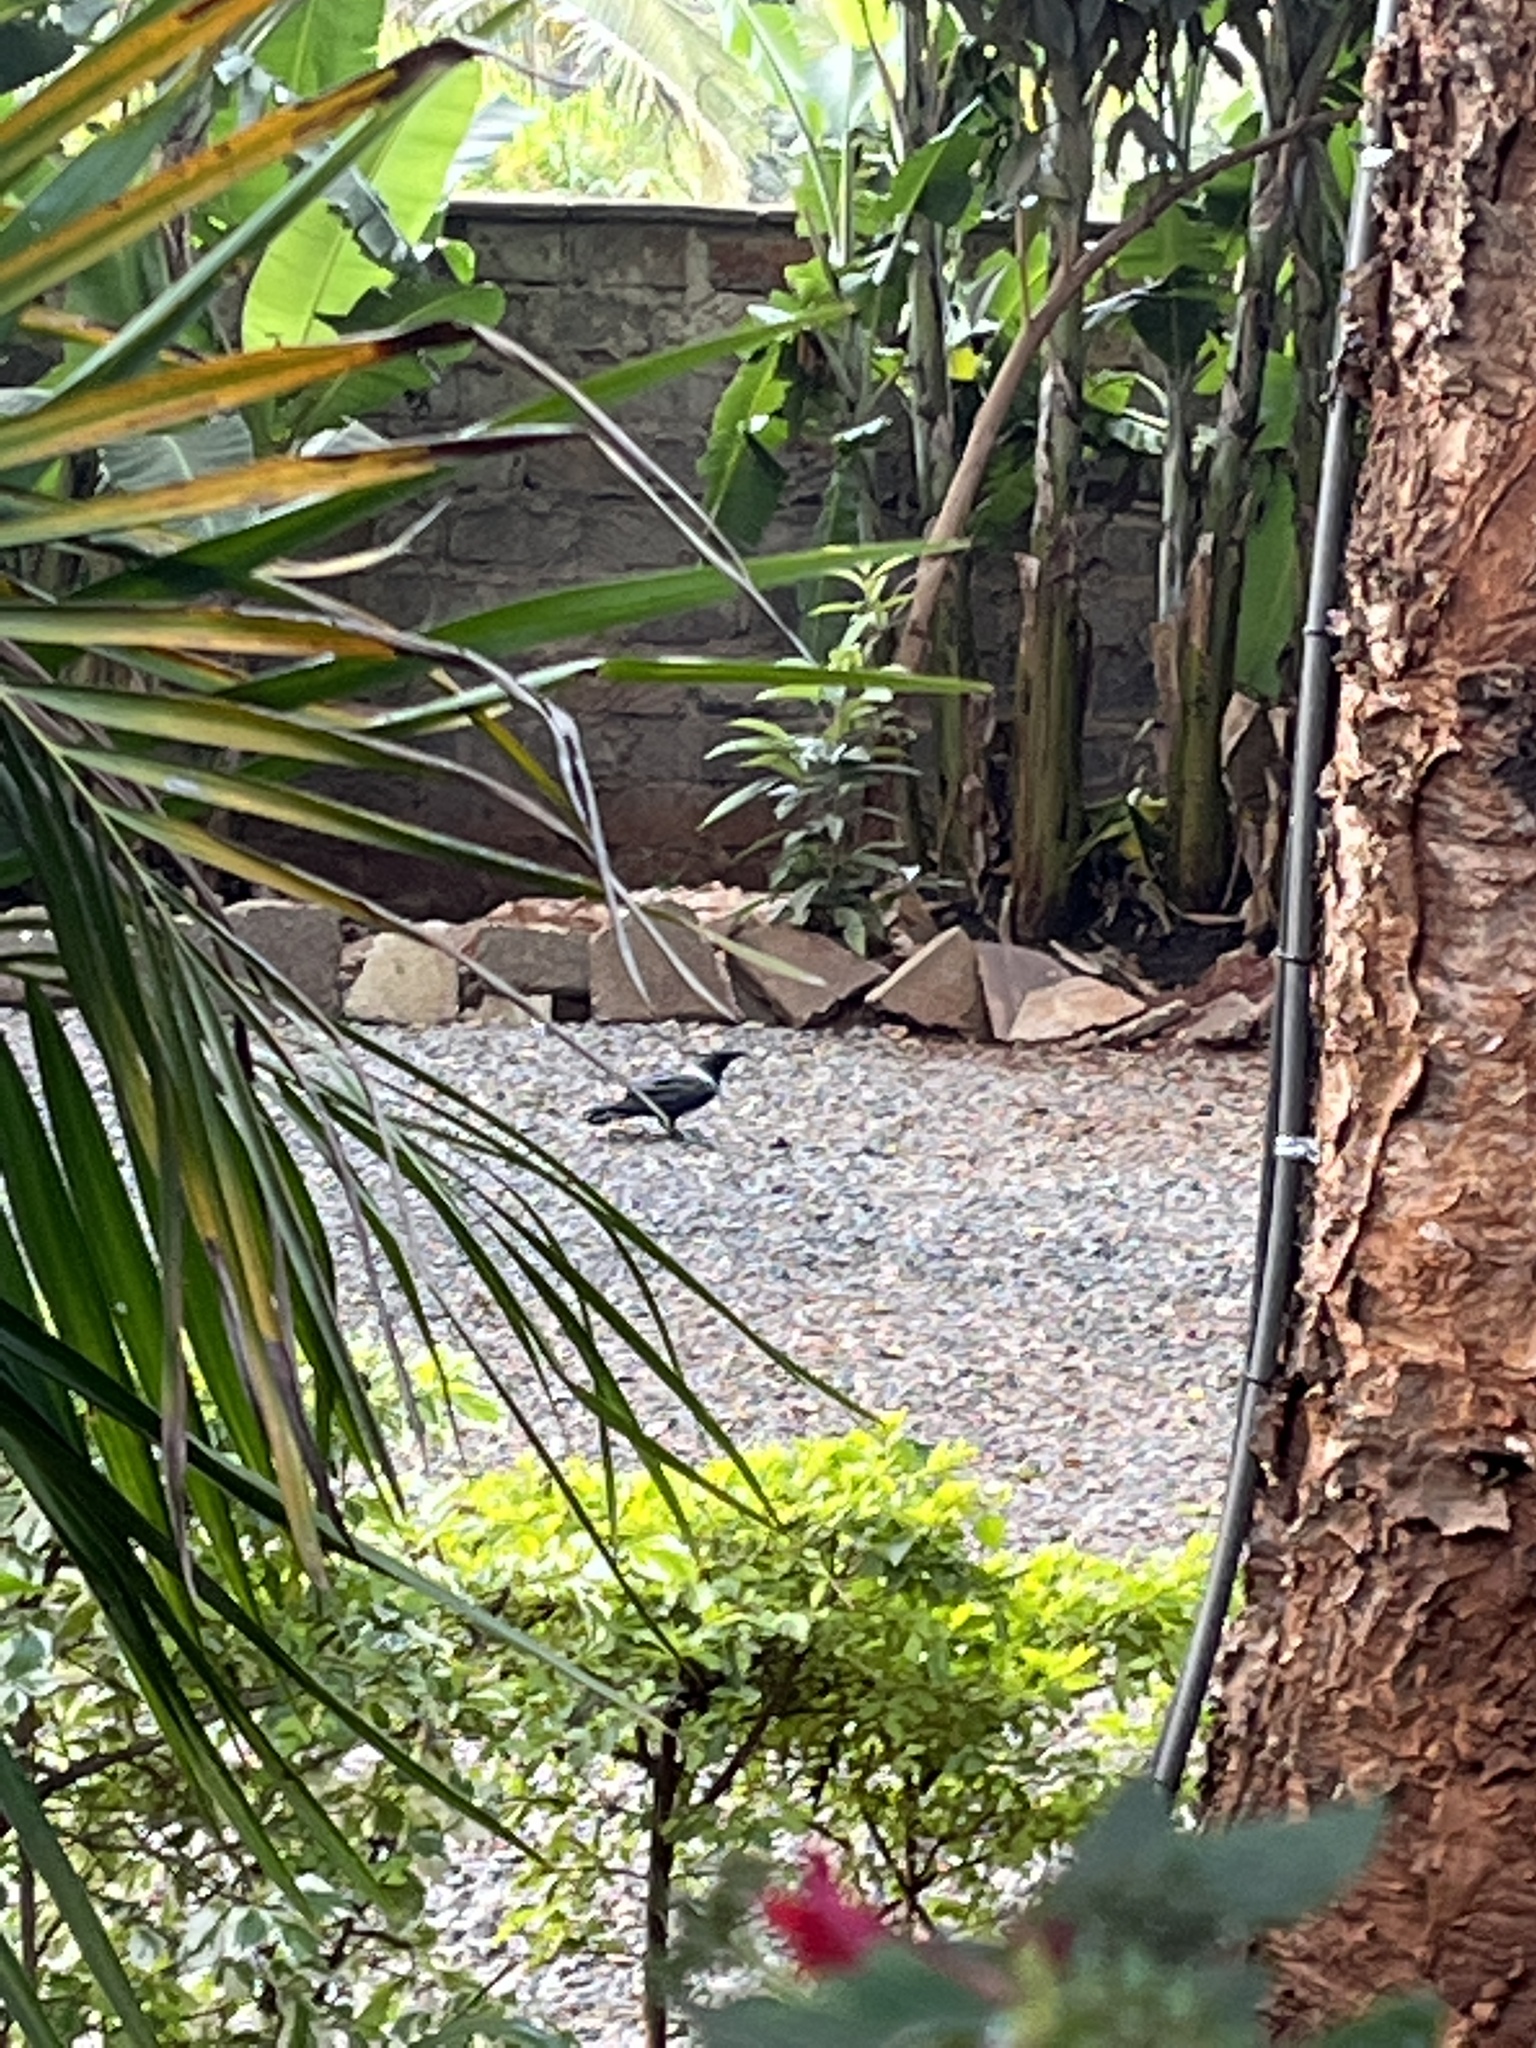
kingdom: Animalia
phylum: Chordata
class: Aves
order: Passeriformes
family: Corvidae
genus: Corvus
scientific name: Corvus albus
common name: Pied crow
